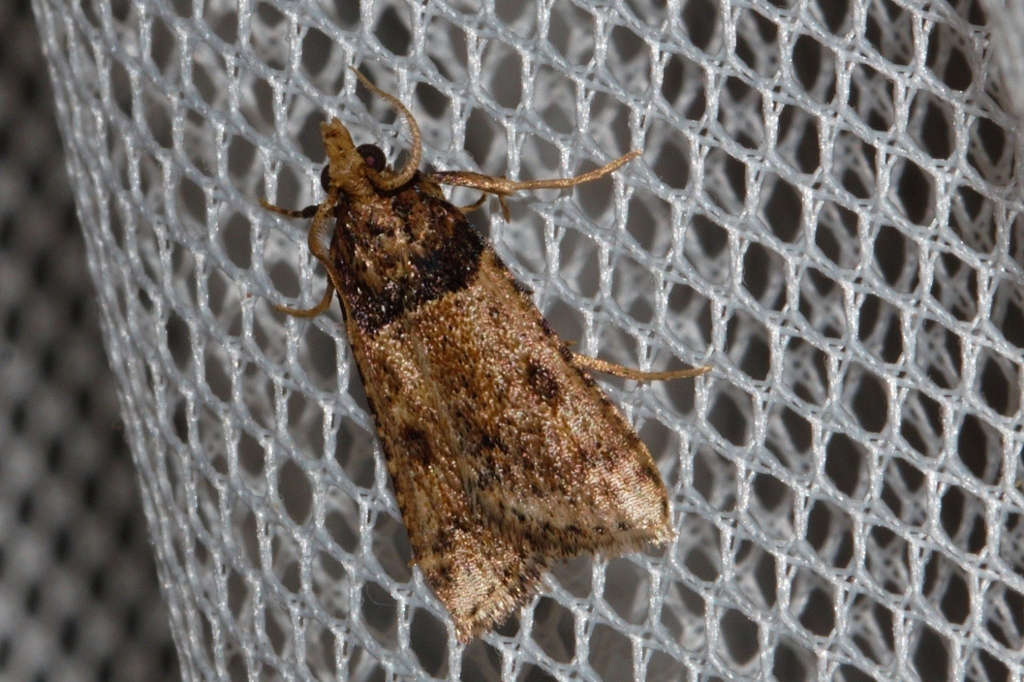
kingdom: Animalia
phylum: Arthropoda
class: Insecta
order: Lepidoptera
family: Pyralidae
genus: Philotis
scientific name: Philotis basalis
